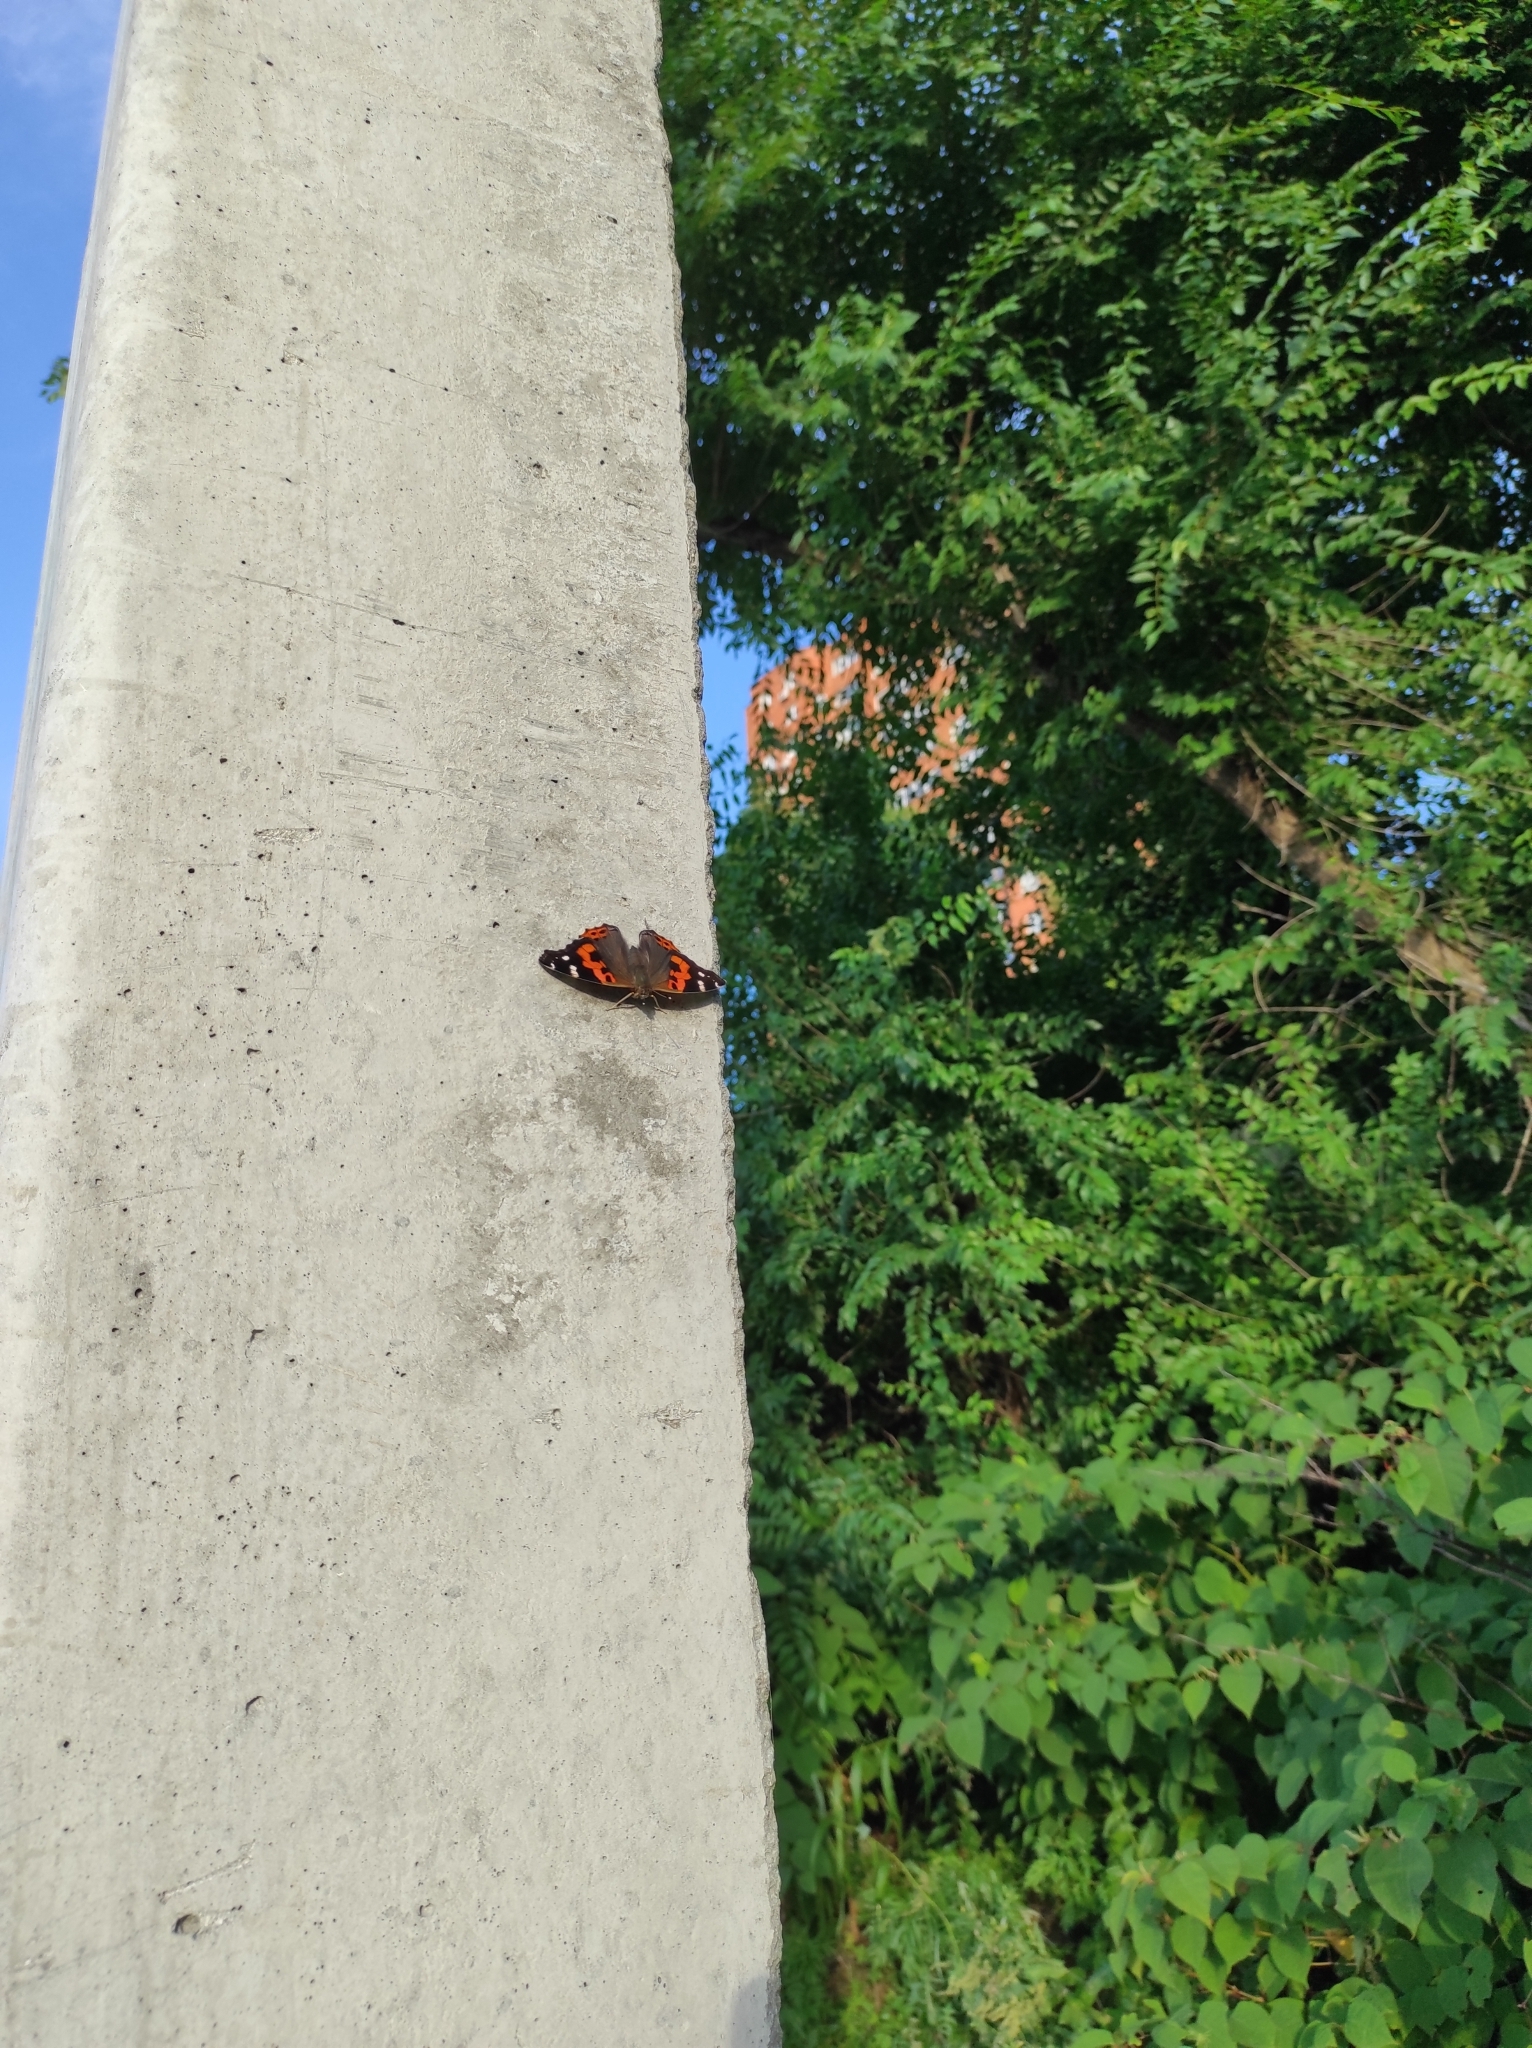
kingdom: Animalia
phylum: Arthropoda
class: Insecta
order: Lepidoptera
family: Nymphalidae
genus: Vanessa
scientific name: Vanessa indica
